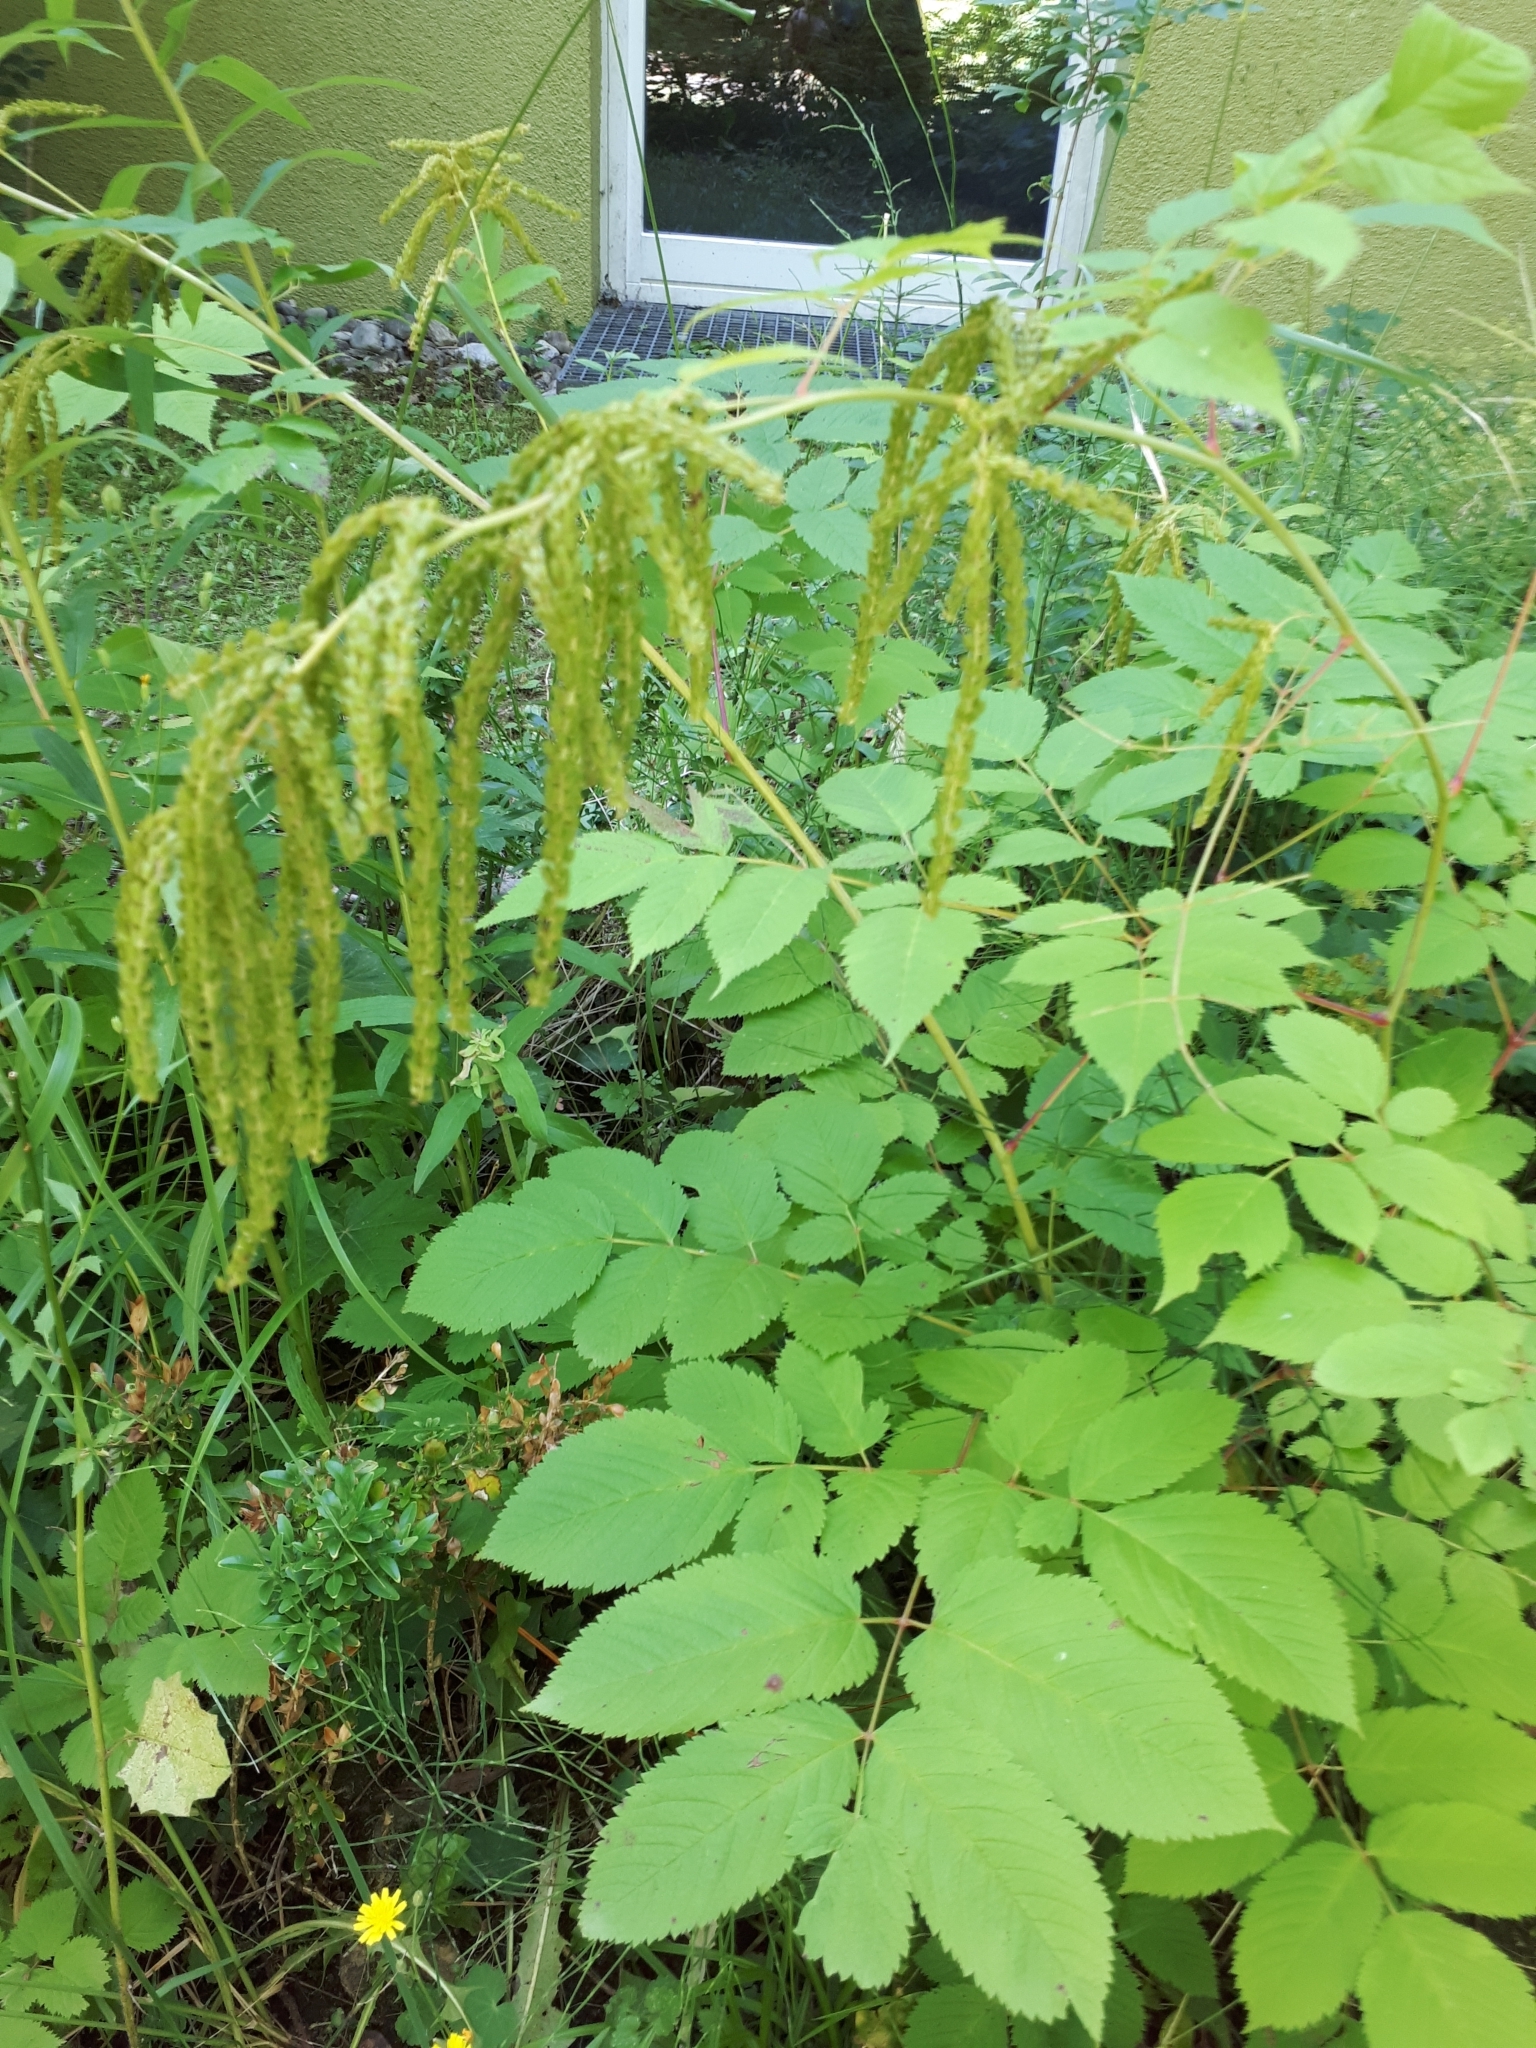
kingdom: Plantae
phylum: Tracheophyta
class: Magnoliopsida
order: Rosales
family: Rosaceae
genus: Aruncus
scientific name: Aruncus dioicus
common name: Buck's-beard
